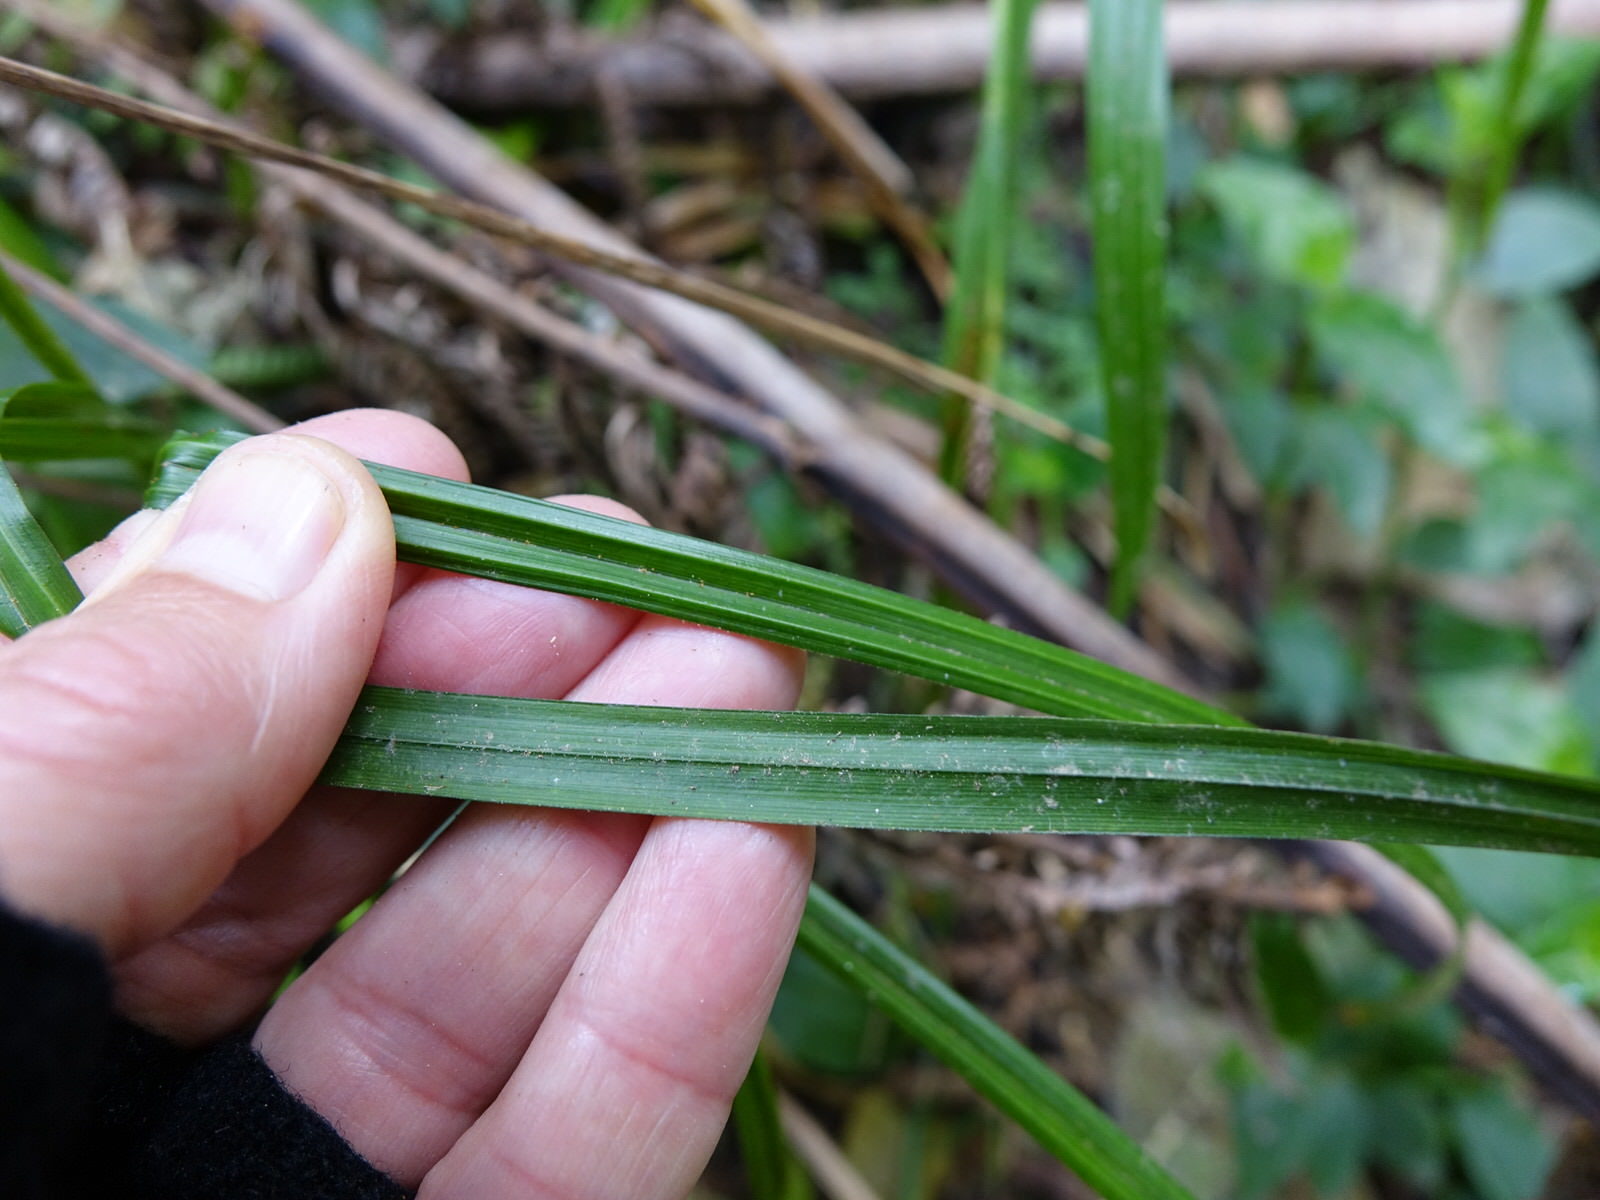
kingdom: Plantae
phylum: Tracheophyta
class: Liliopsida
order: Poales
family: Cyperaceae
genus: Carex
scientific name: Carex lambertiana
